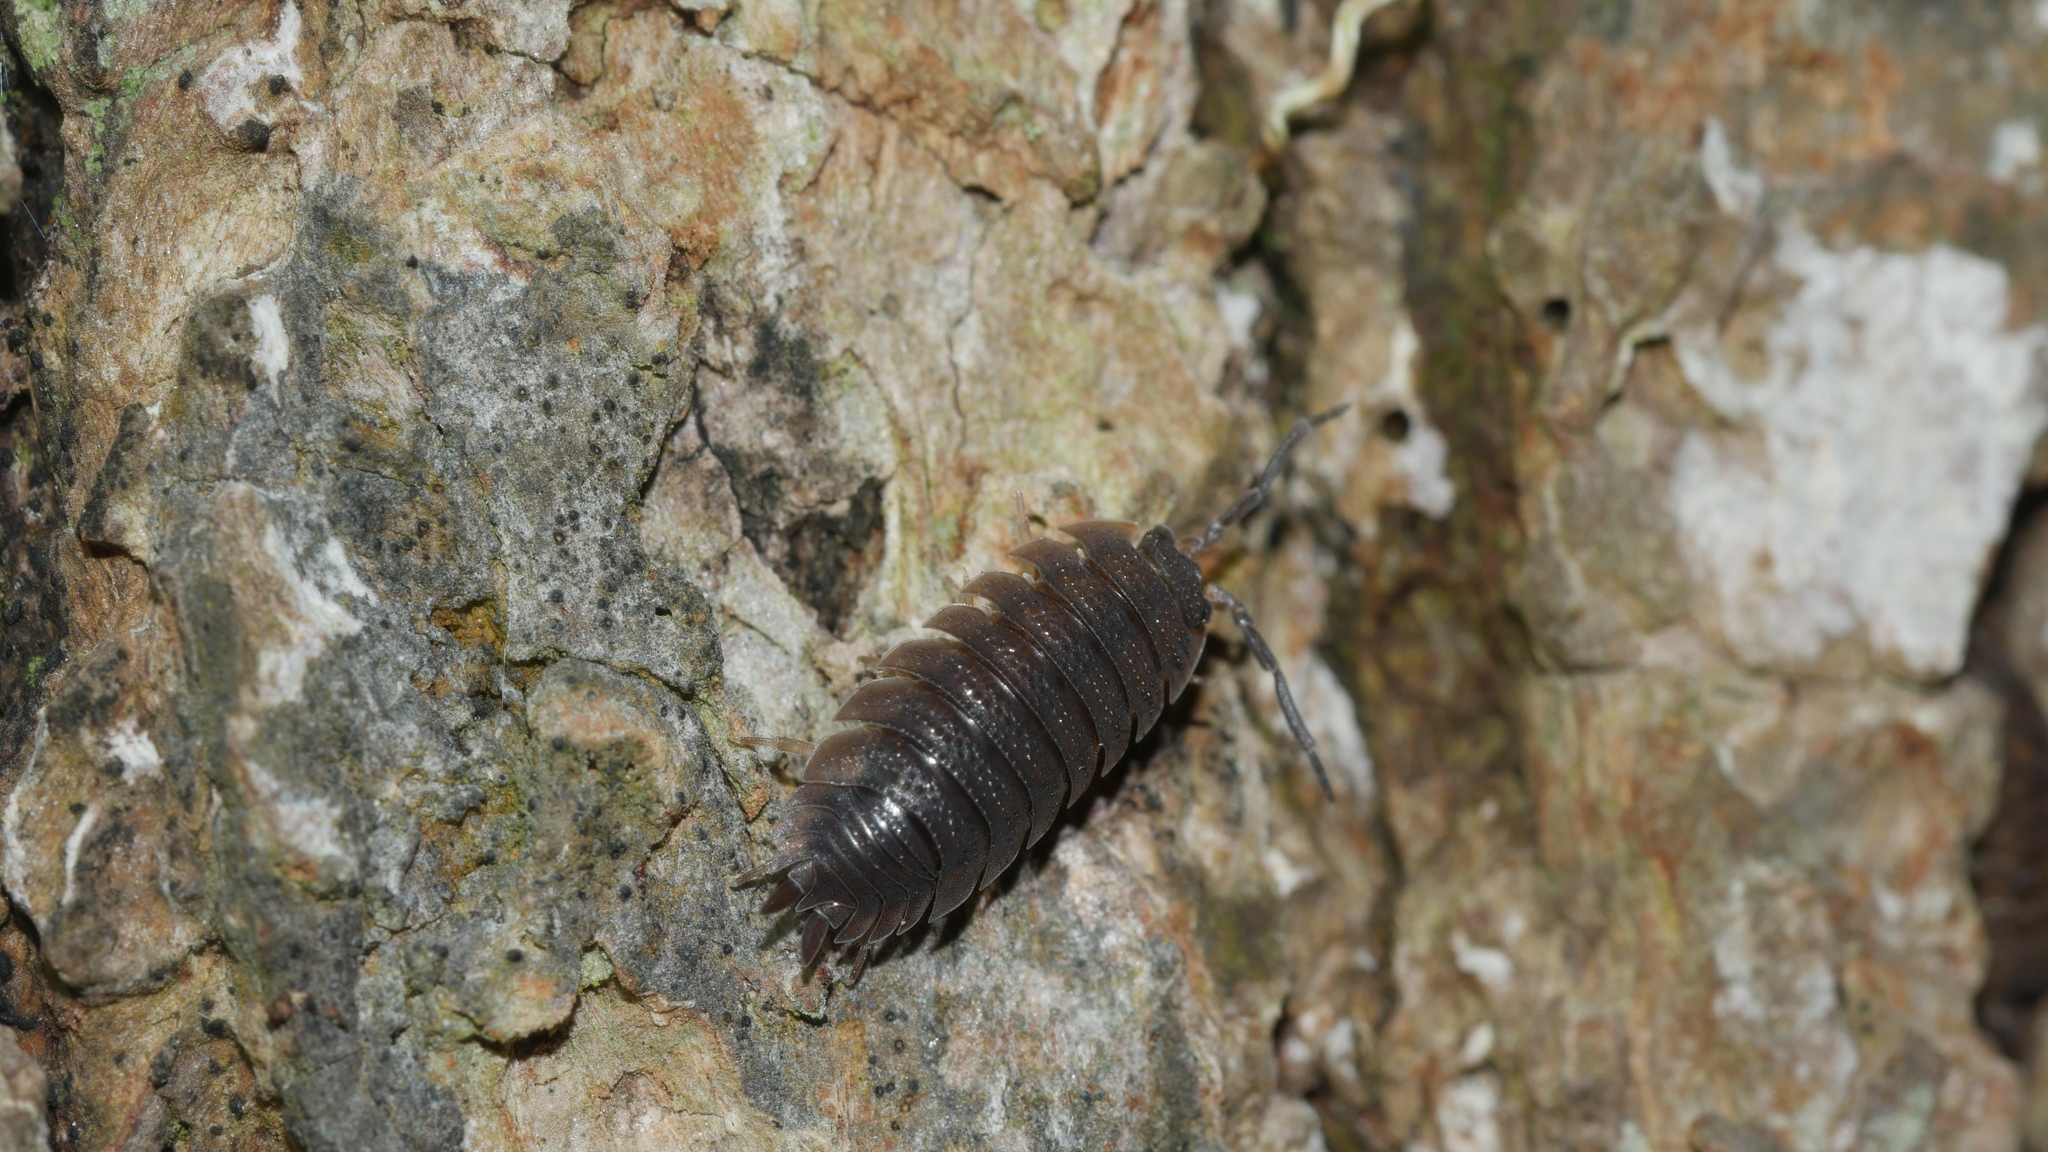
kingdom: Animalia
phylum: Arthropoda
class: Malacostraca
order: Isopoda
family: Porcellionidae
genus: Porcellio
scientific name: Porcellio scaber
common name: Common rough woodlouse
